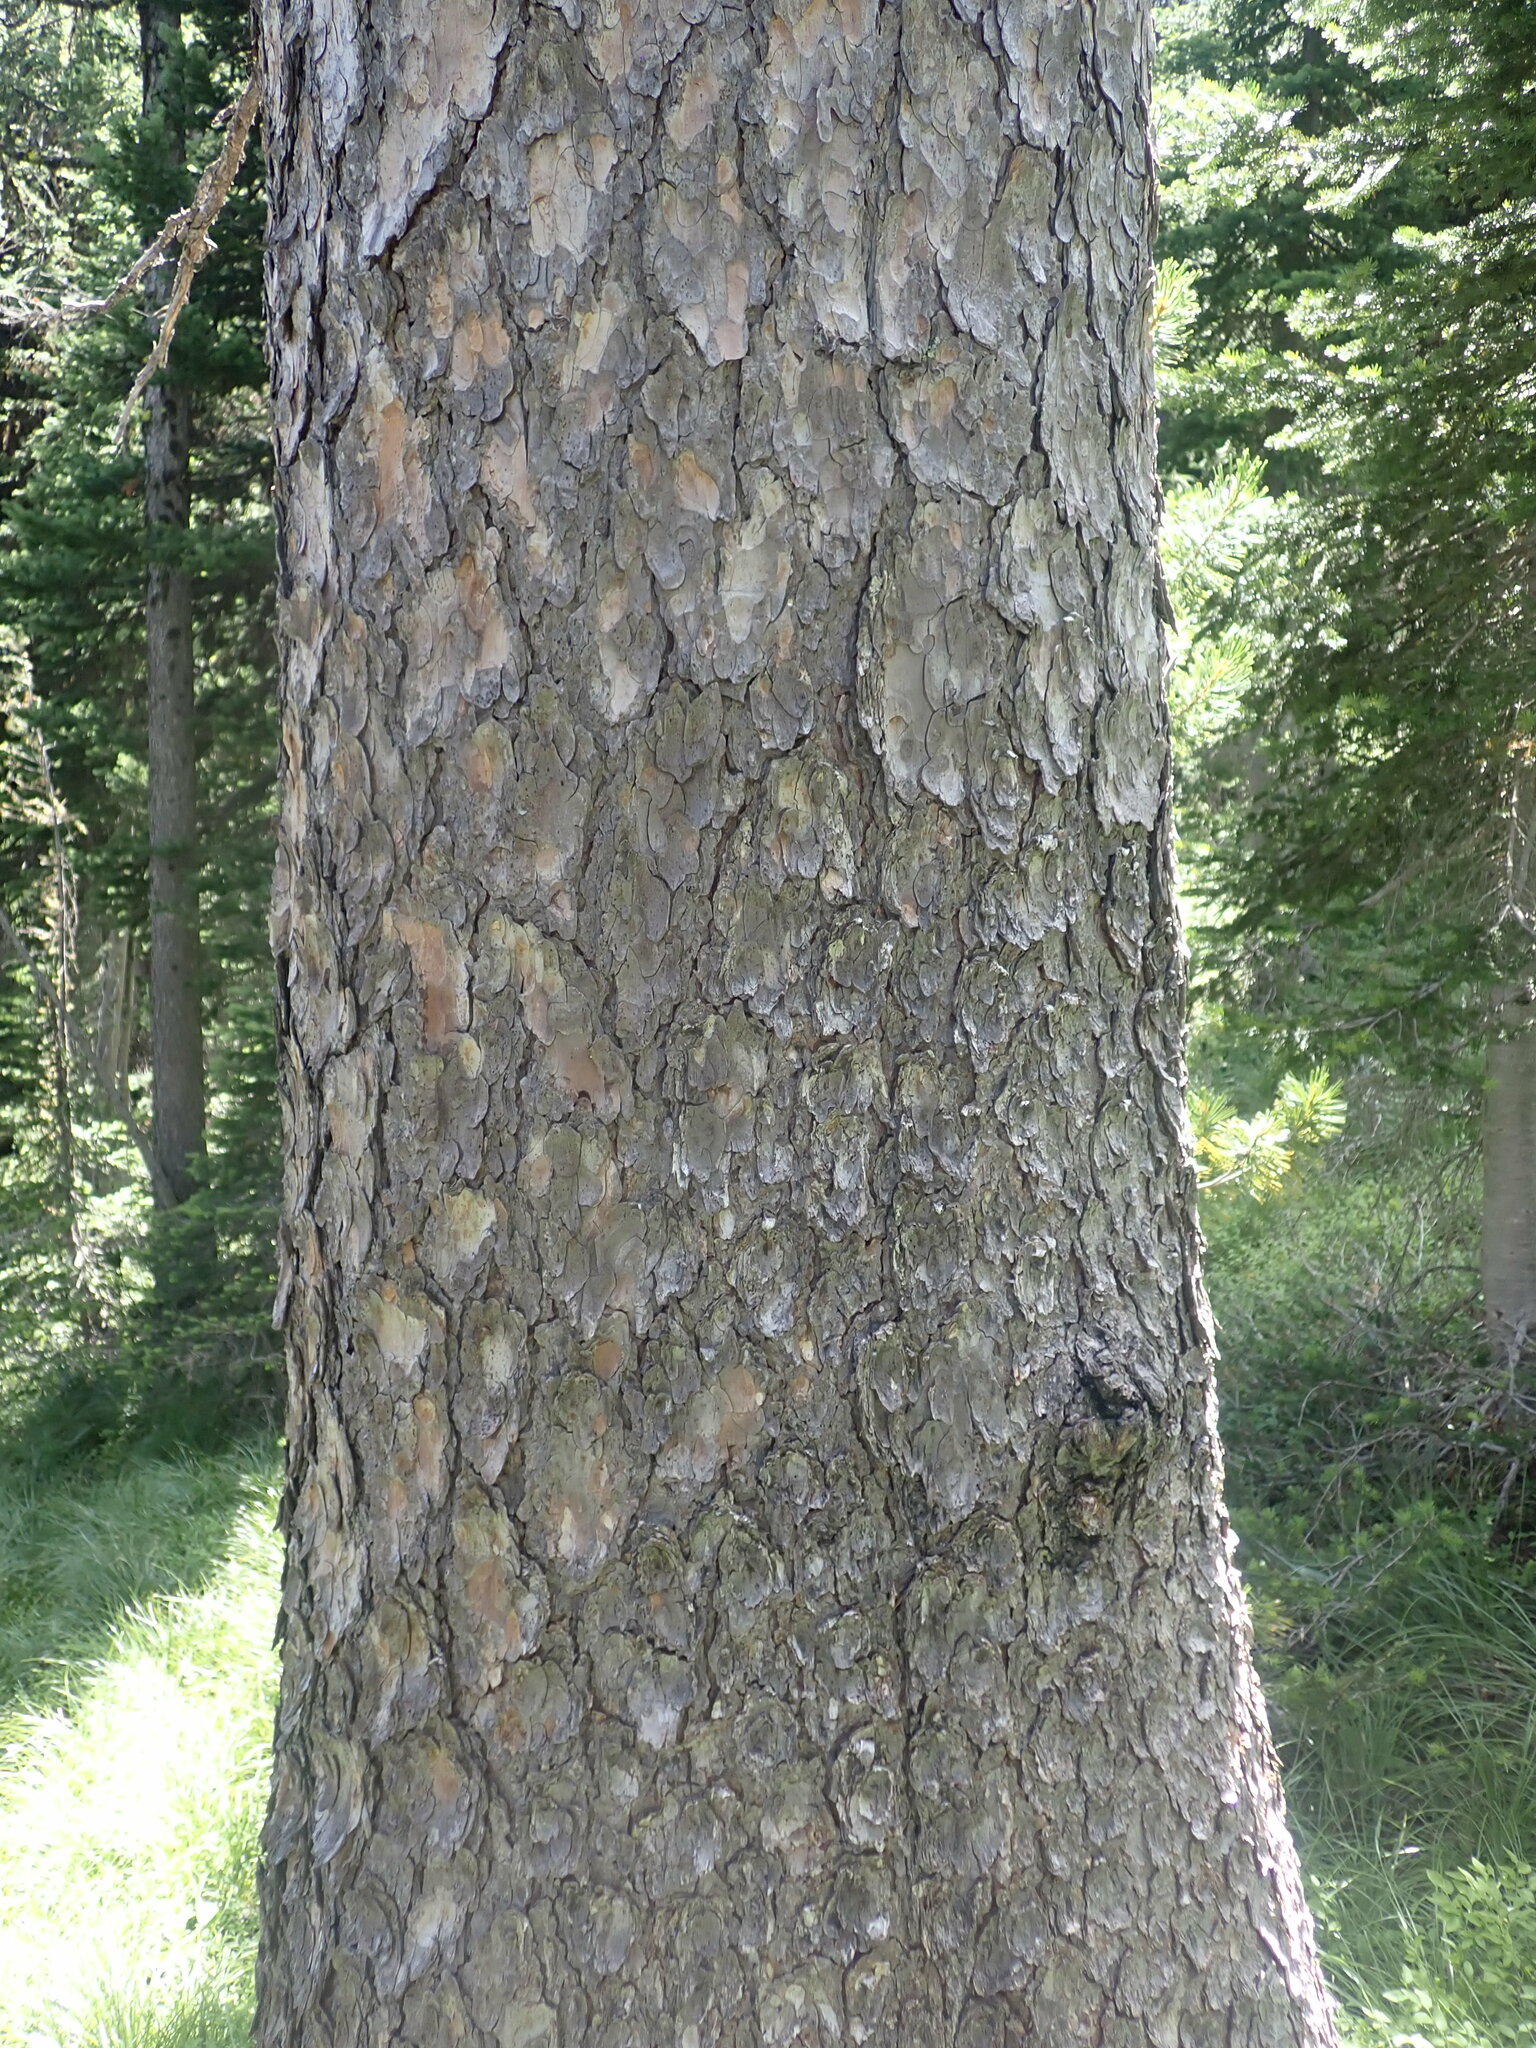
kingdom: Plantae
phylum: Tracheophyta
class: Pinopsida
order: Pinales
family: Pinaceae
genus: Larix
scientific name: Larix lyallii
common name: Alpine larch
